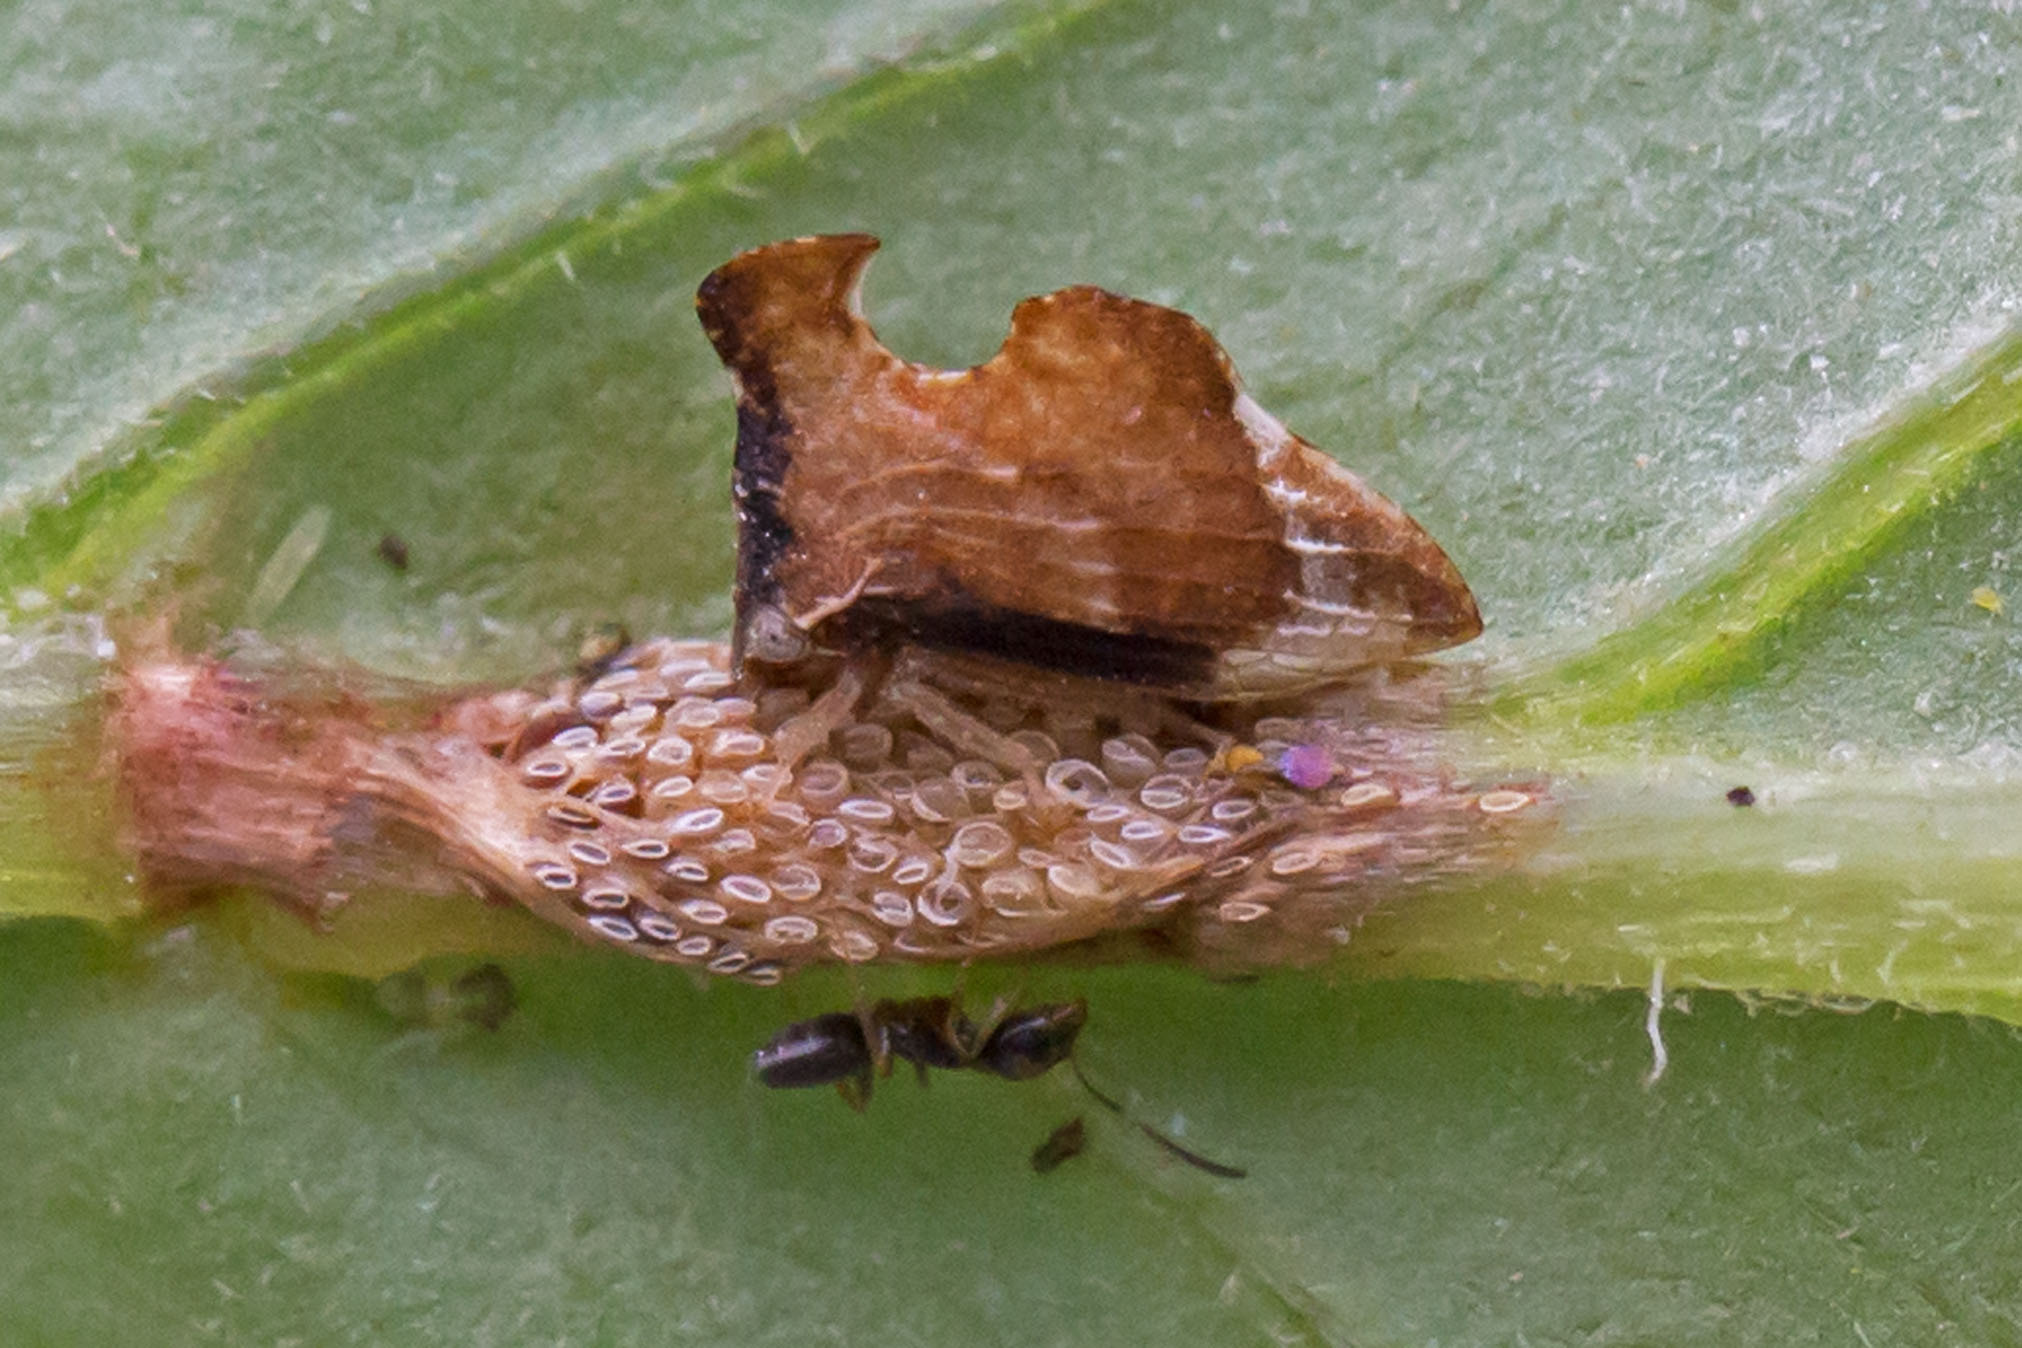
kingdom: Animalia
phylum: Arthropoda
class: Insecta
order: Hemiptera
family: Membracidae
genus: Entylia
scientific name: Entylia carinata
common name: Keeled treehopper
